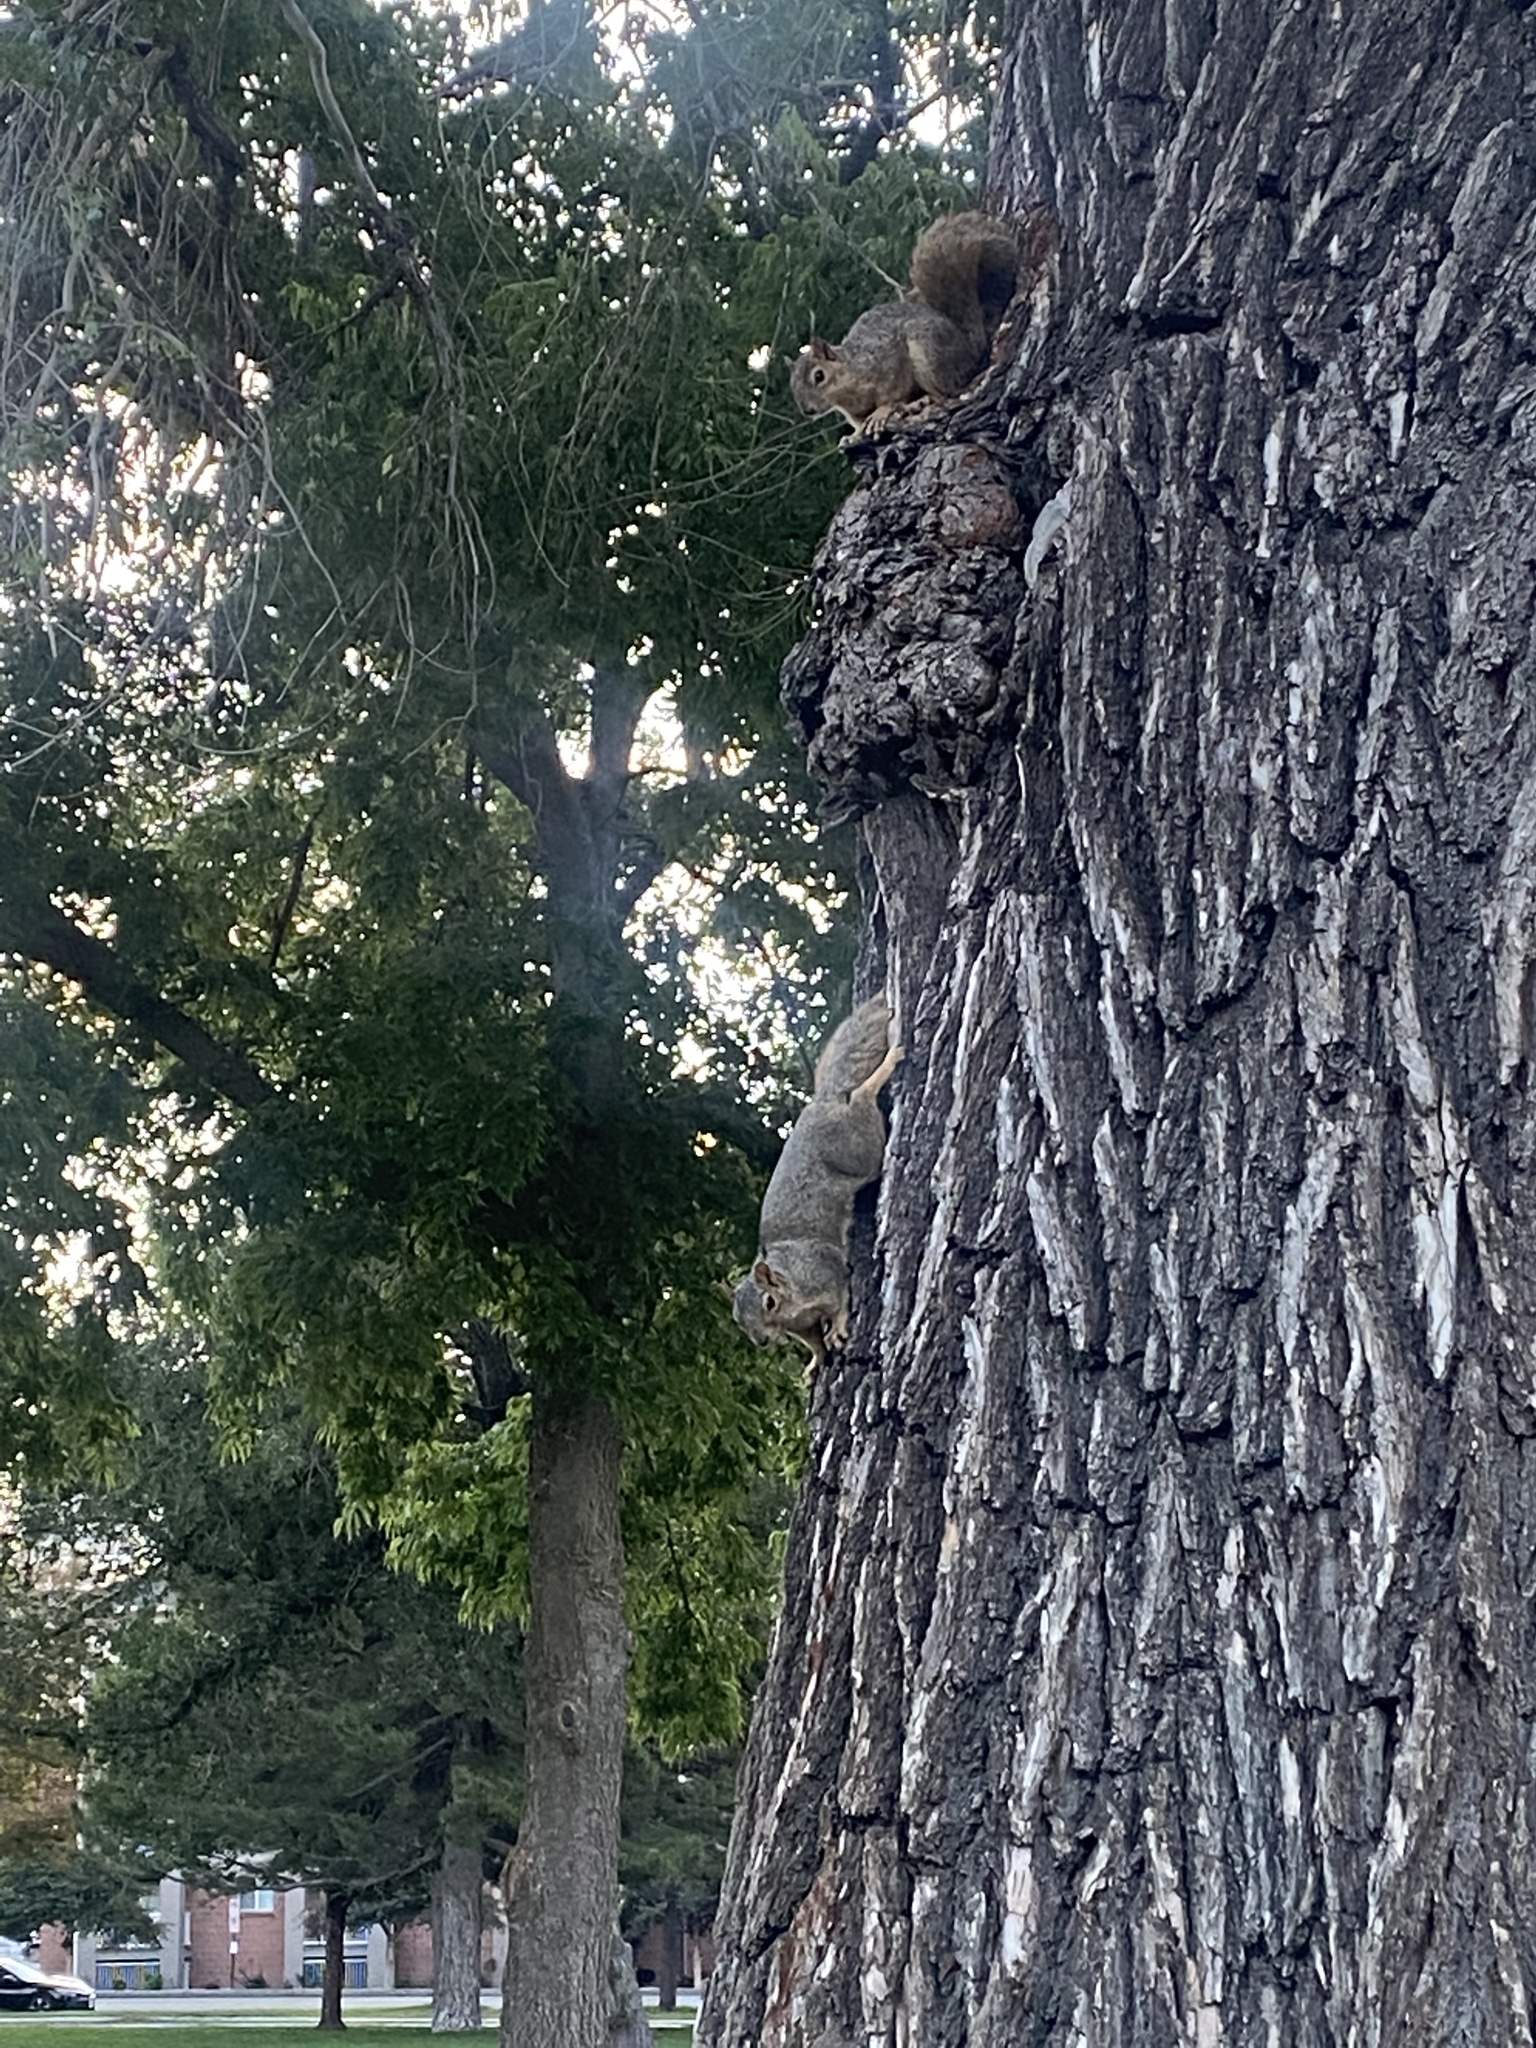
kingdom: Animalia
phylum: Chordata
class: Mammalia
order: Rodentia
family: Sciuridae
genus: Sciurus
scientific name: Sciurus niger
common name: Fox squirrel
